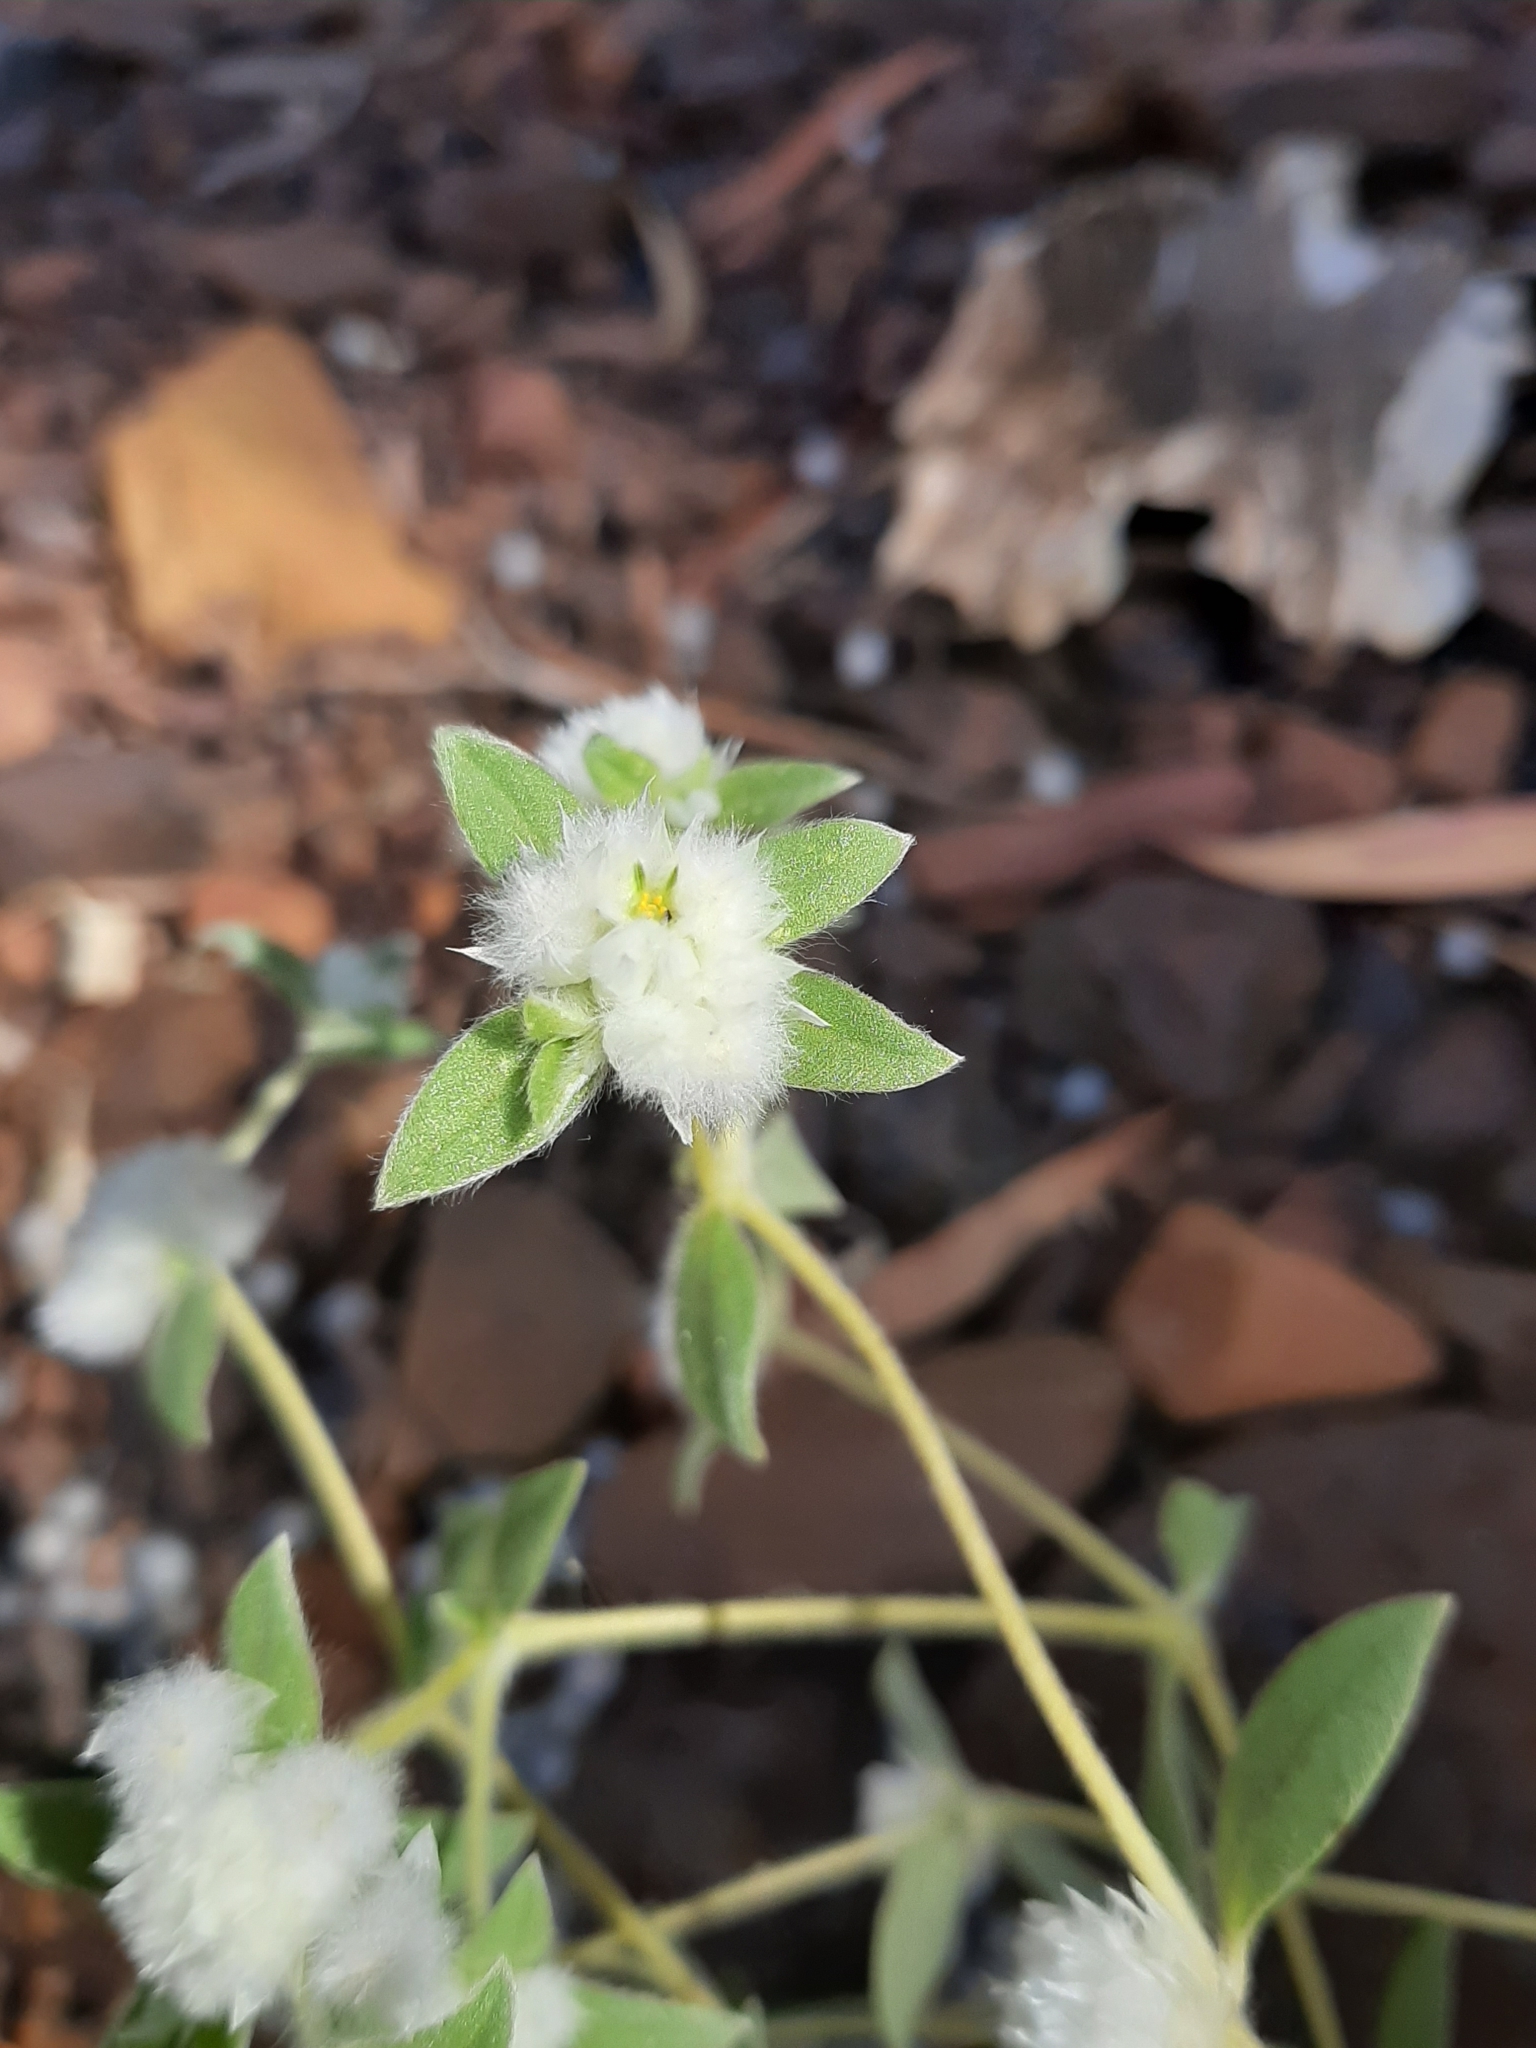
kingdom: Plantae
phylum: Tracheophyta
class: Magnoliopsida
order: Caryophyllales
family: Amaranthaceae
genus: Gomphrena
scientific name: Gomphrena cunninghamii
